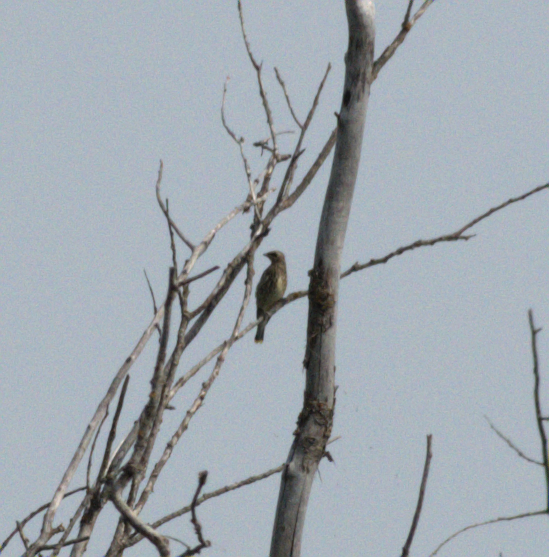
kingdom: Animalia
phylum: Chordata
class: Aves
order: Passeriformes
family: Bombycillidae
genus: Bombycilla
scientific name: Bombycilla cedrorum
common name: Cedar waxwing
